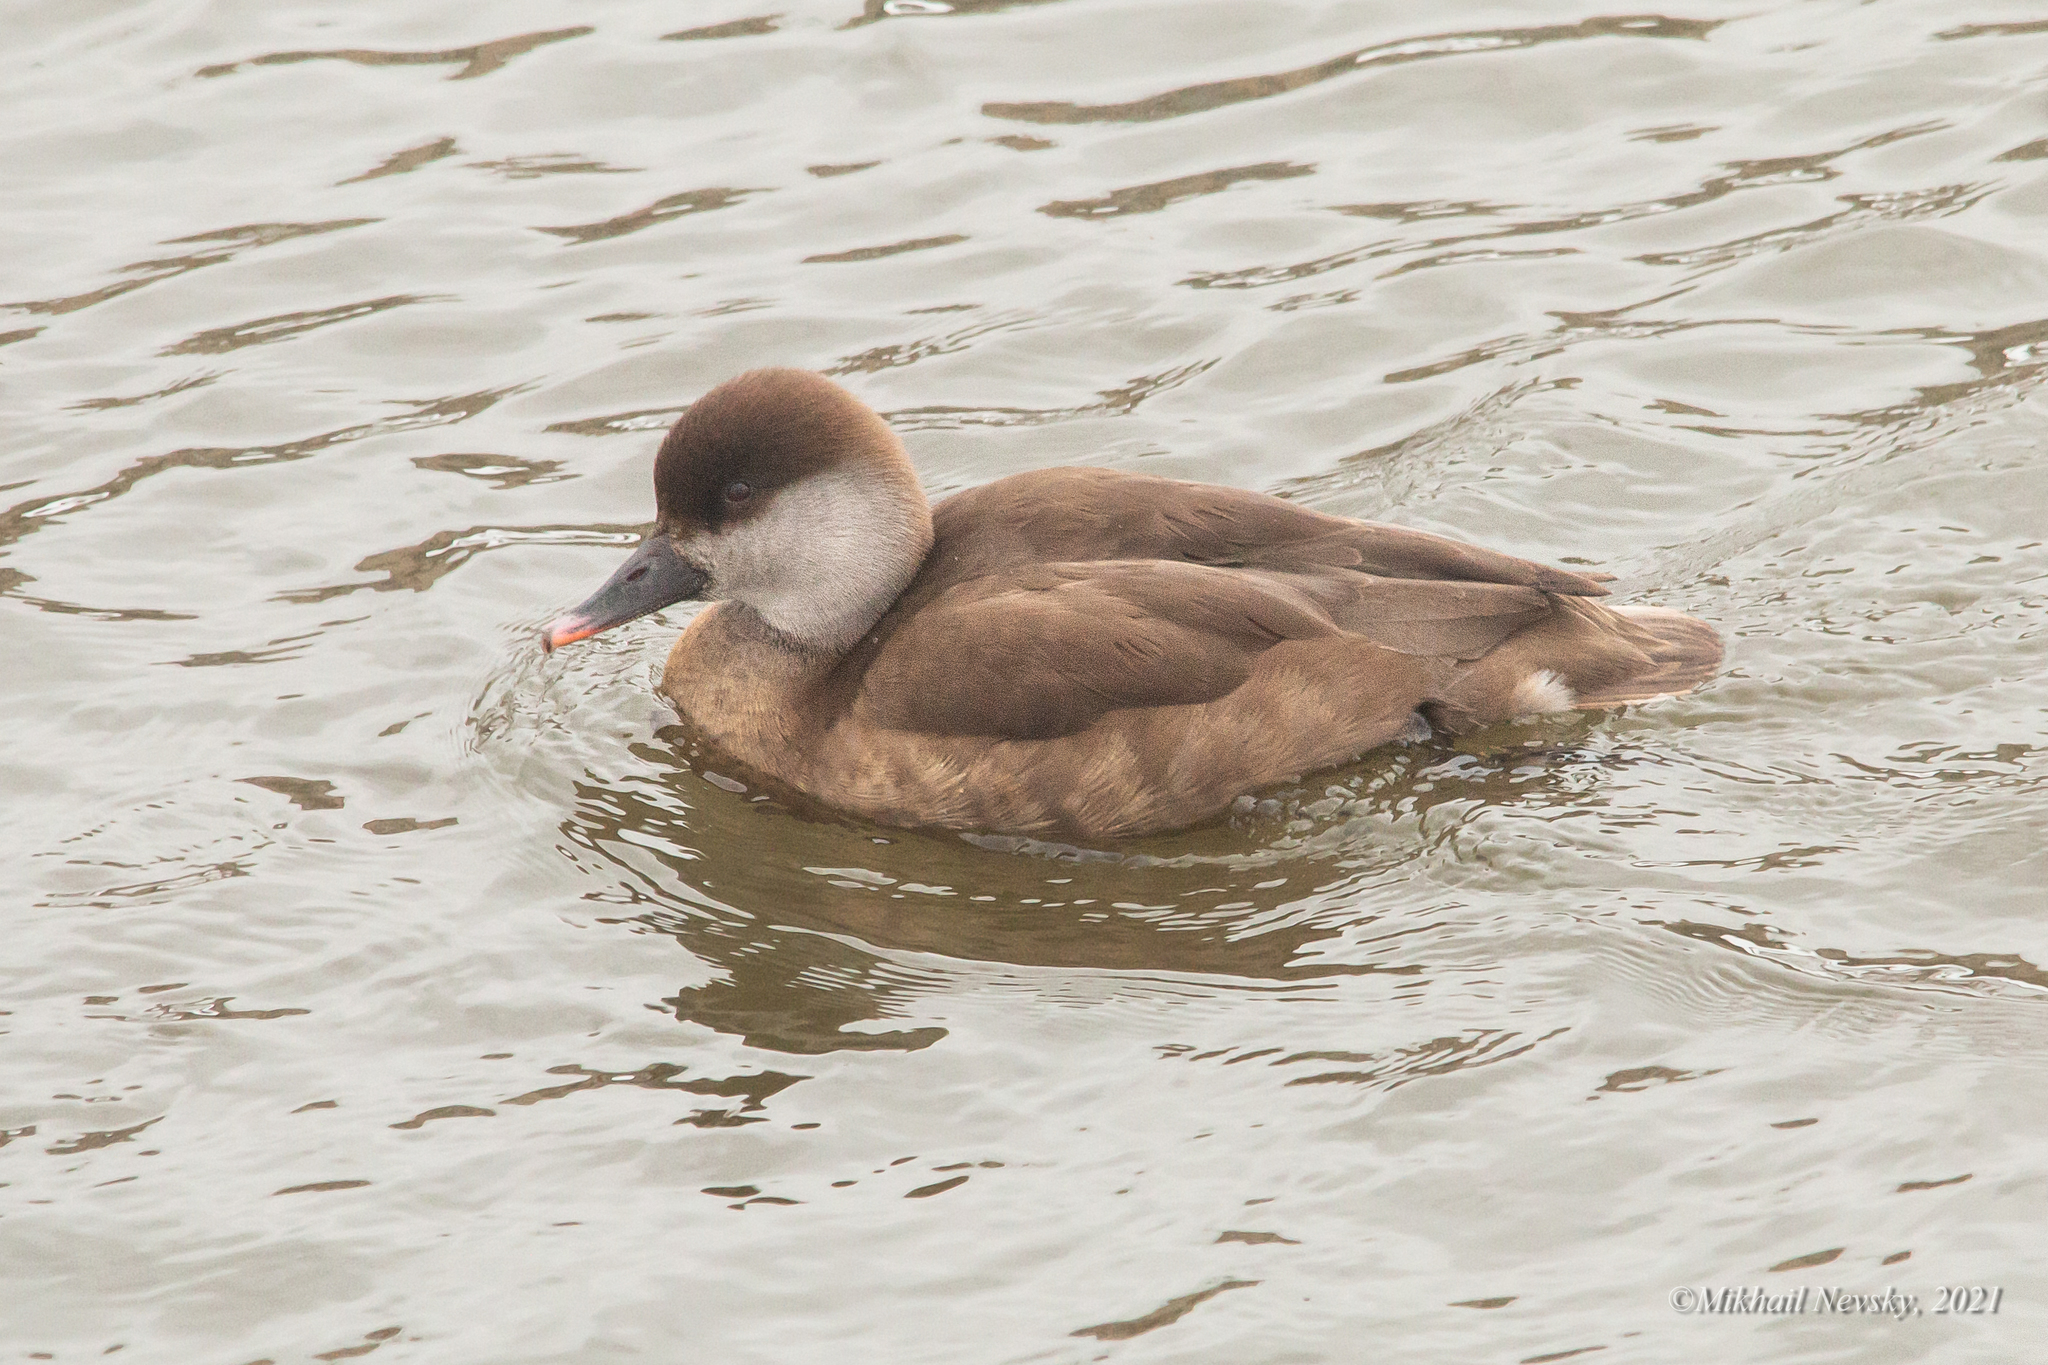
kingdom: Animalia
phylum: Chordata
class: Aves
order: Anseriformes
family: Anatidae
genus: Netta
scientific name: Netta rufina
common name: Red-crested pochard
